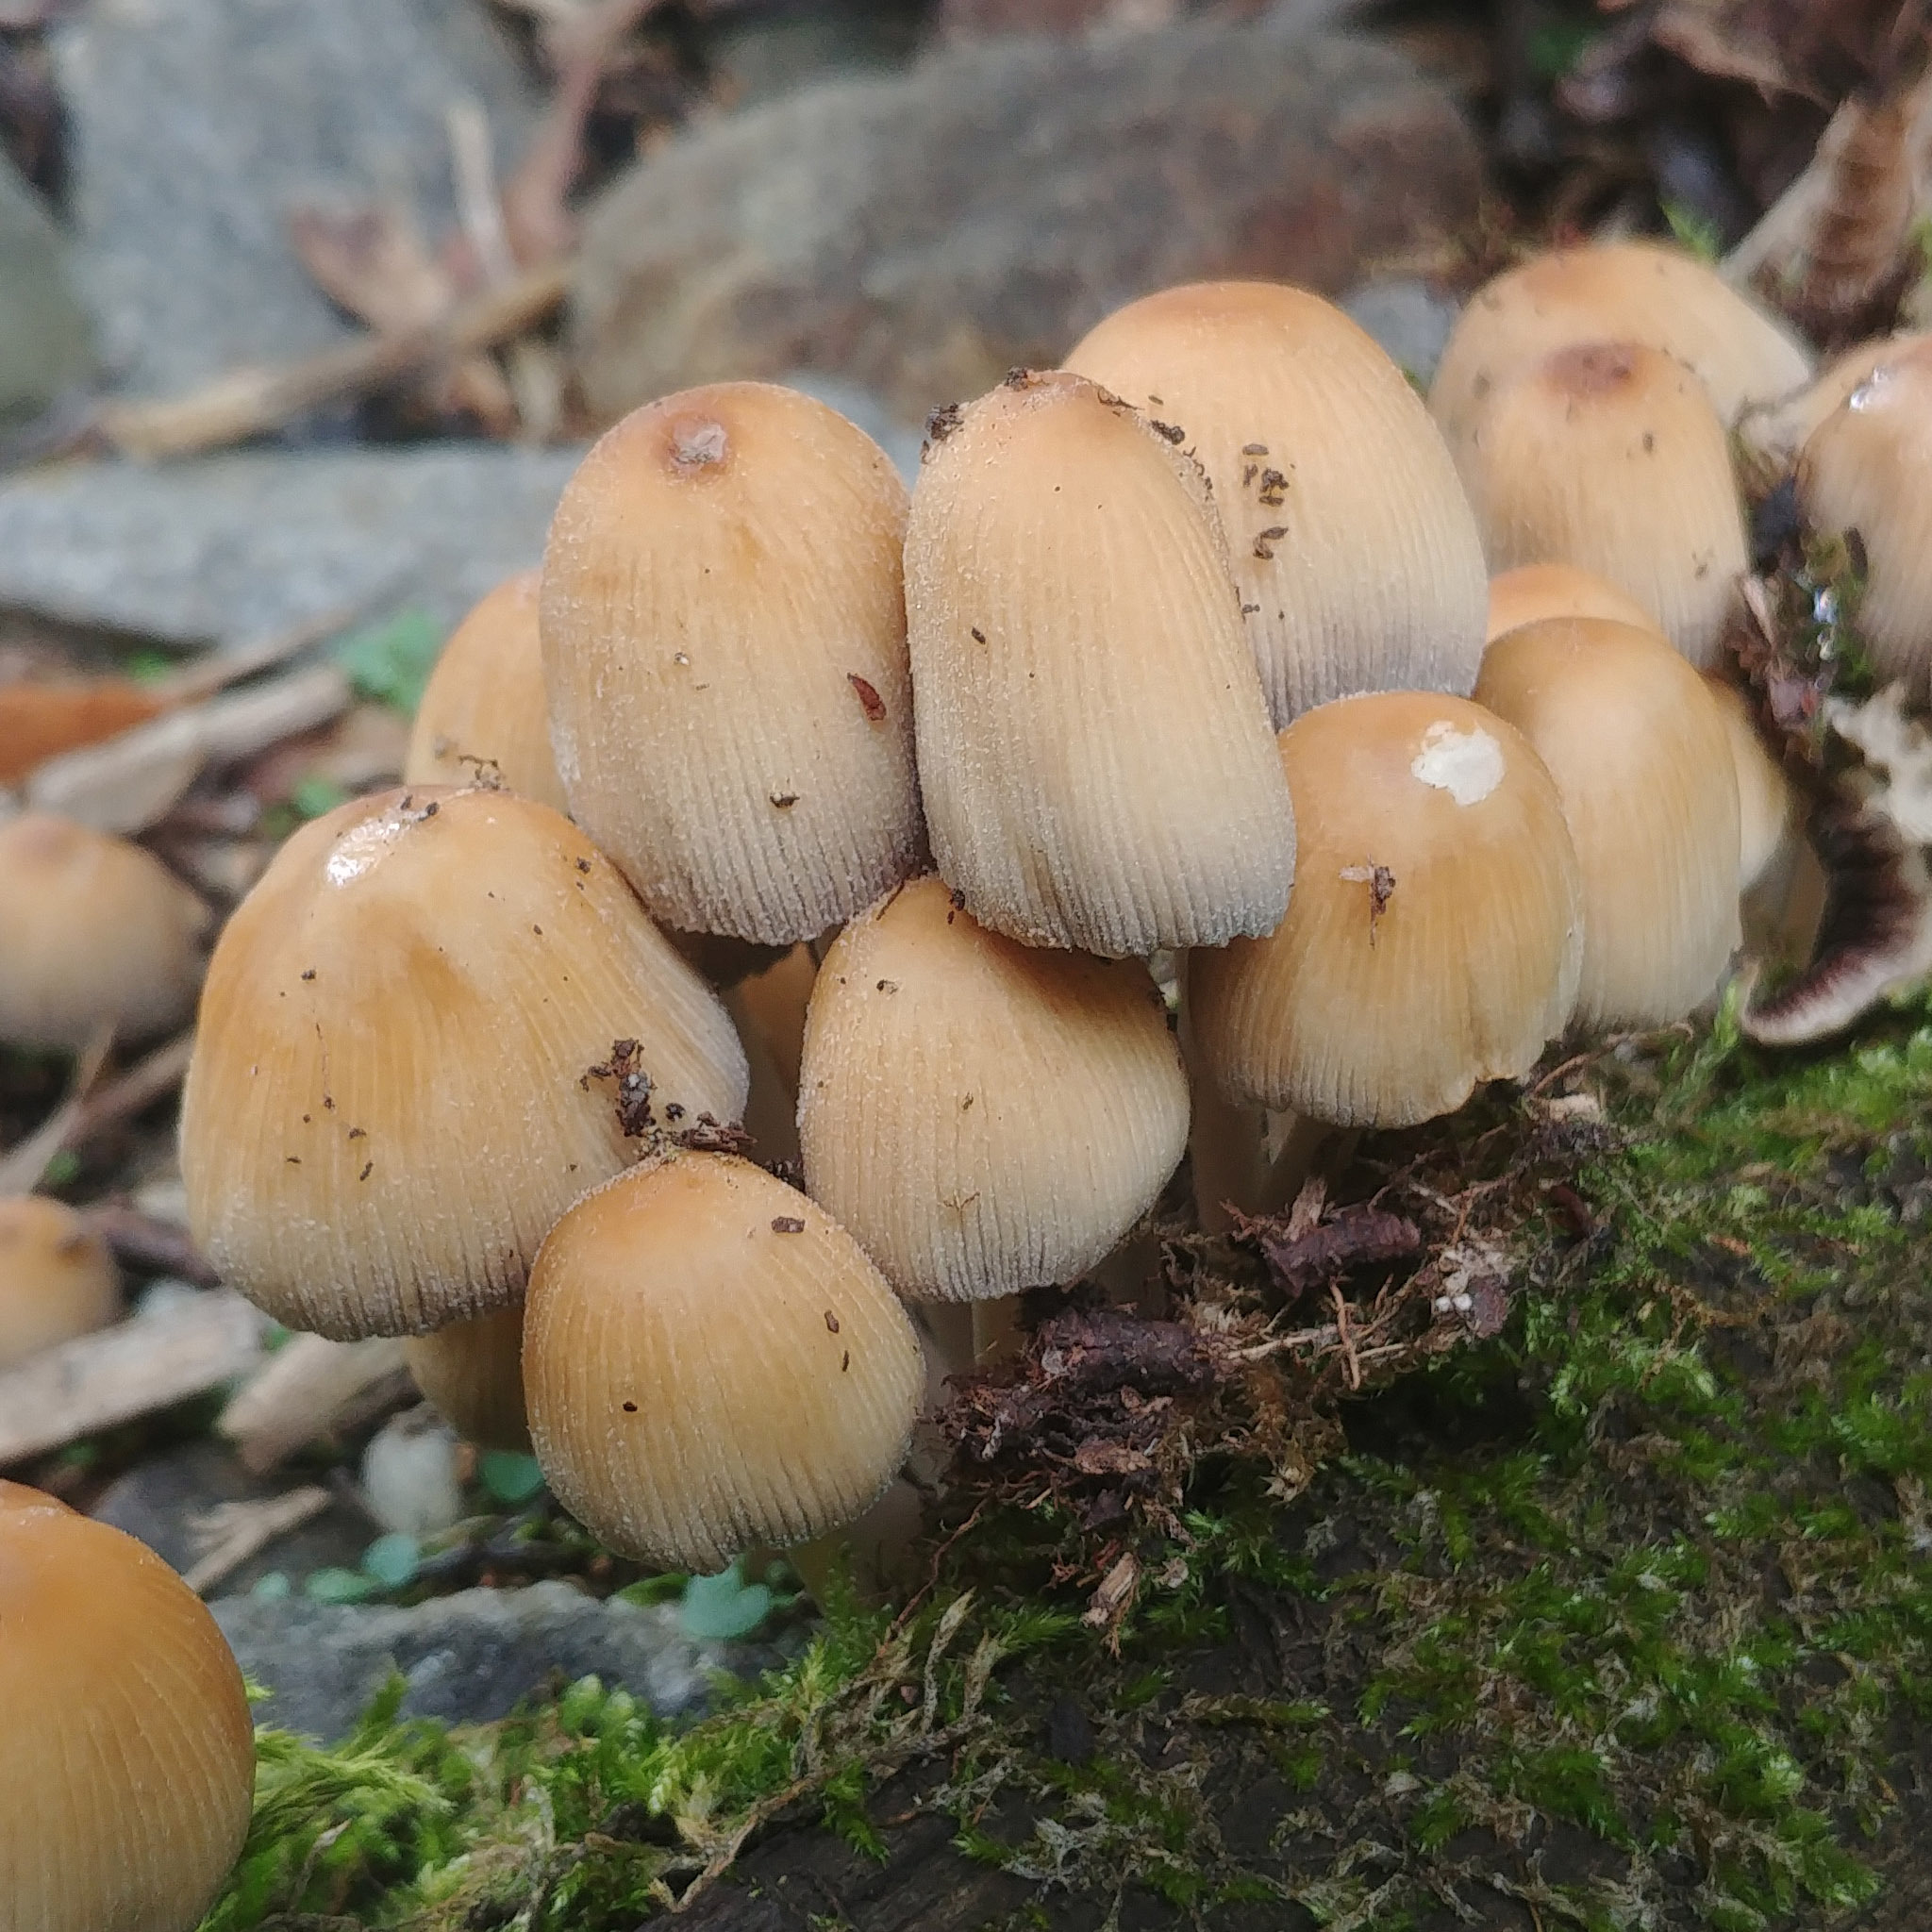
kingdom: Fungi
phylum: Basidiomycota
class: Agaricomycetes
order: Agaricales
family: Psathyrellaceae
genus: Coprinellus
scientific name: Coprinellus micaceus
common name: Glistening ink-cap
